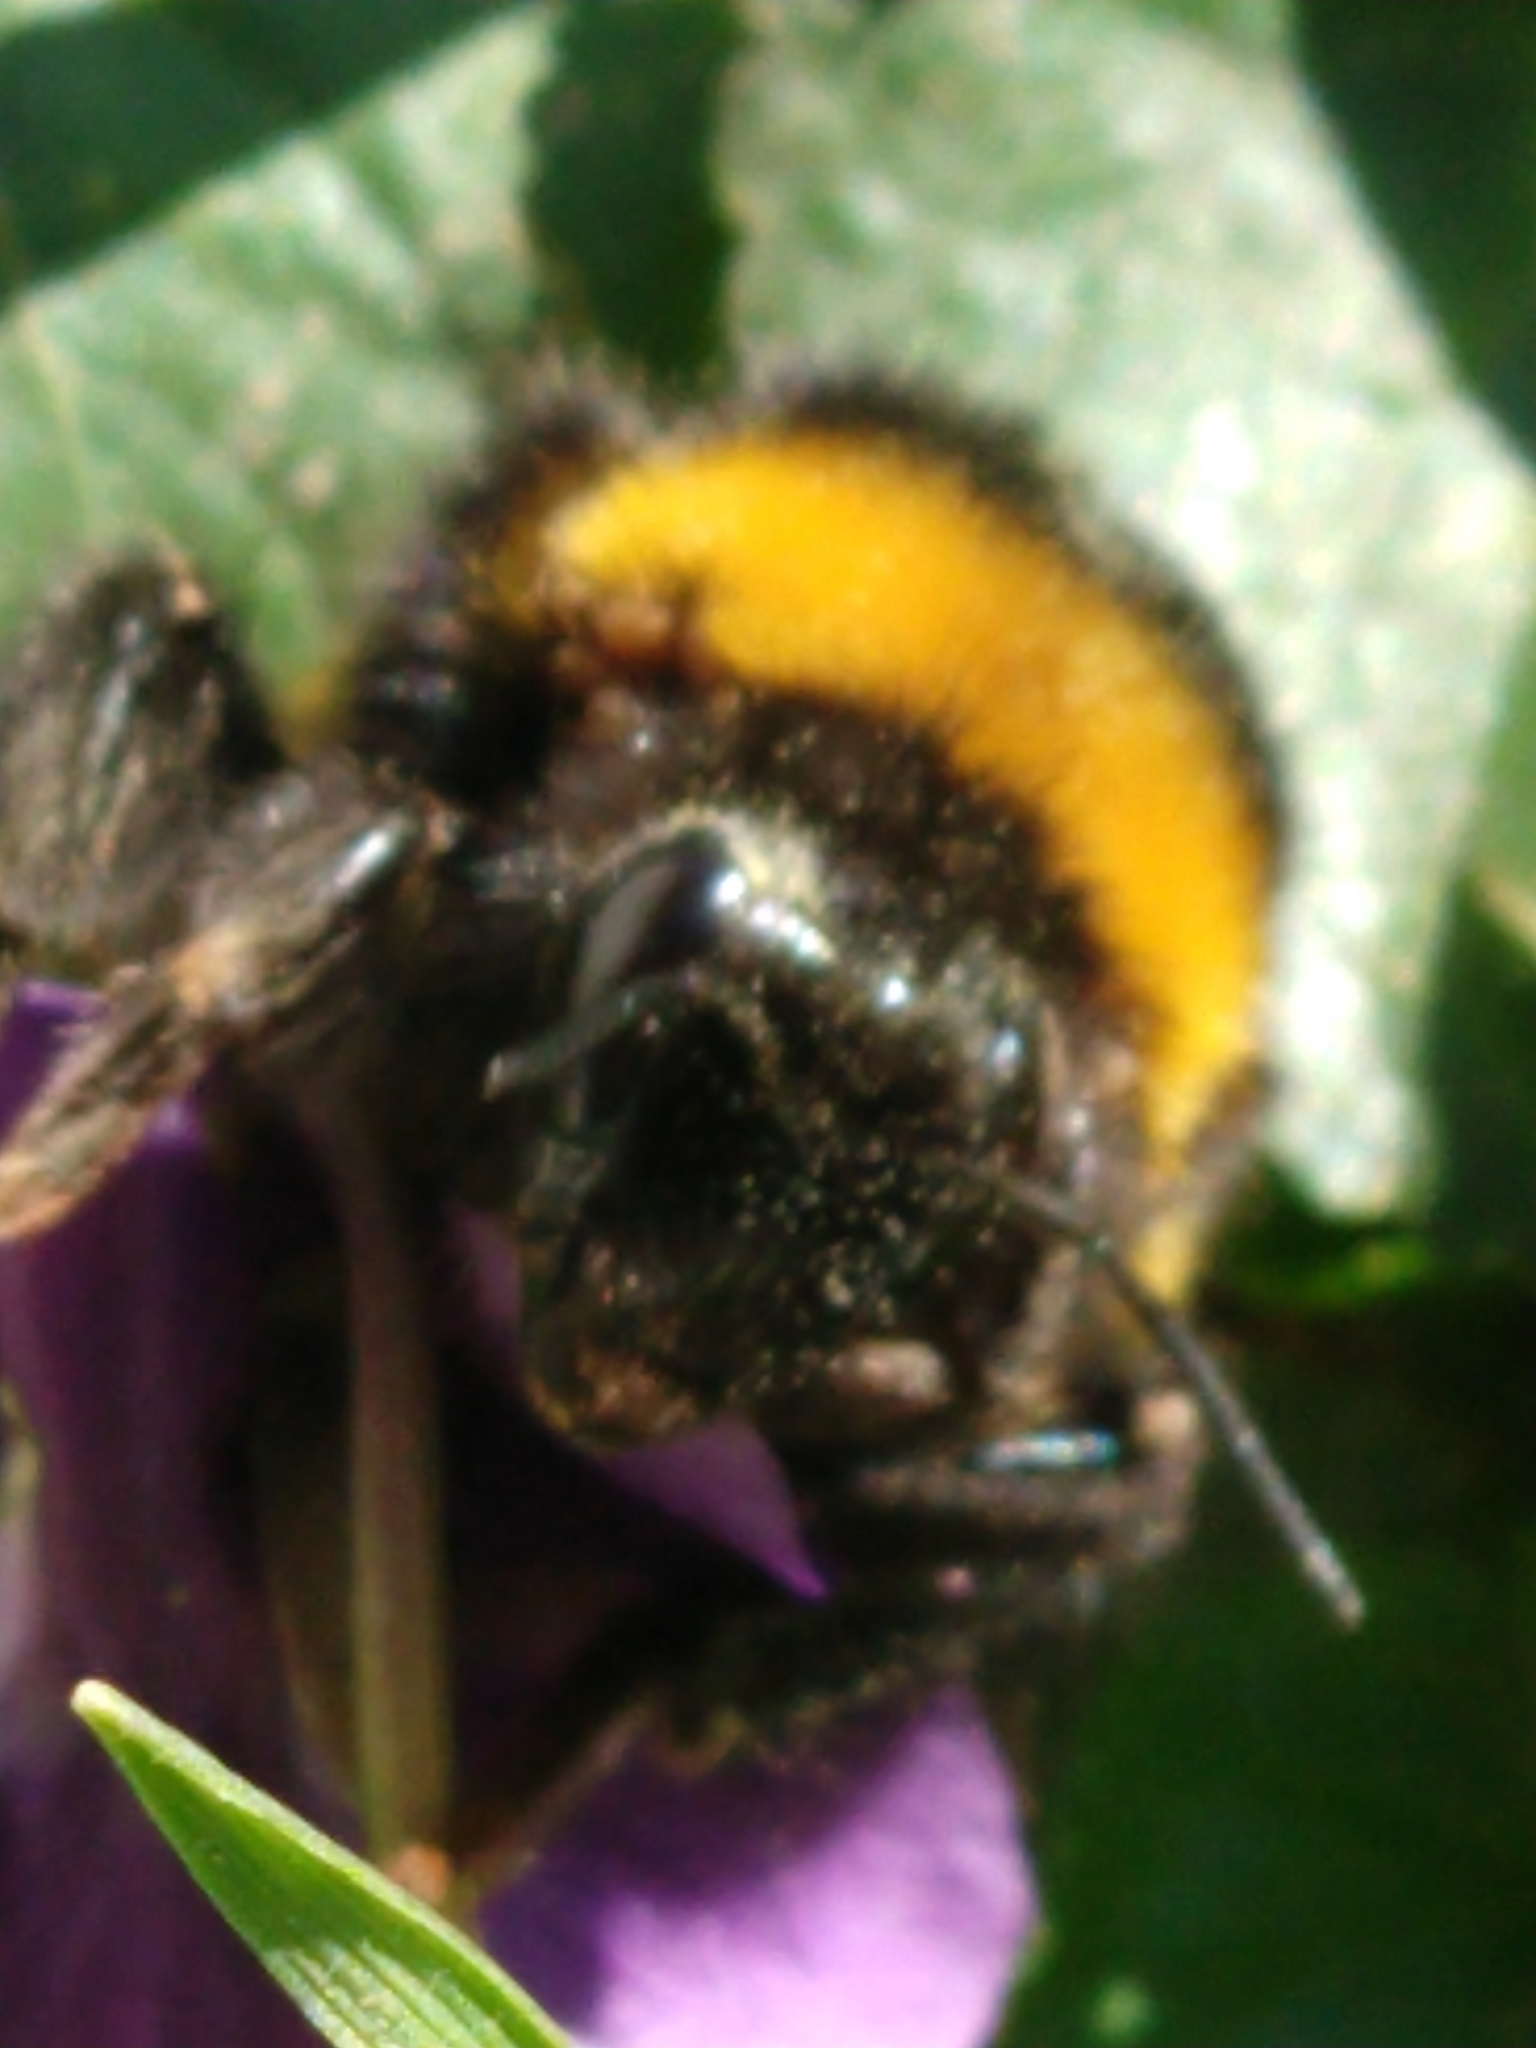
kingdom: Animalia
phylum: Arthropoda
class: Insecta
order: Hymenoptera
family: Apidae
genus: Bombus
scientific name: Bombus
